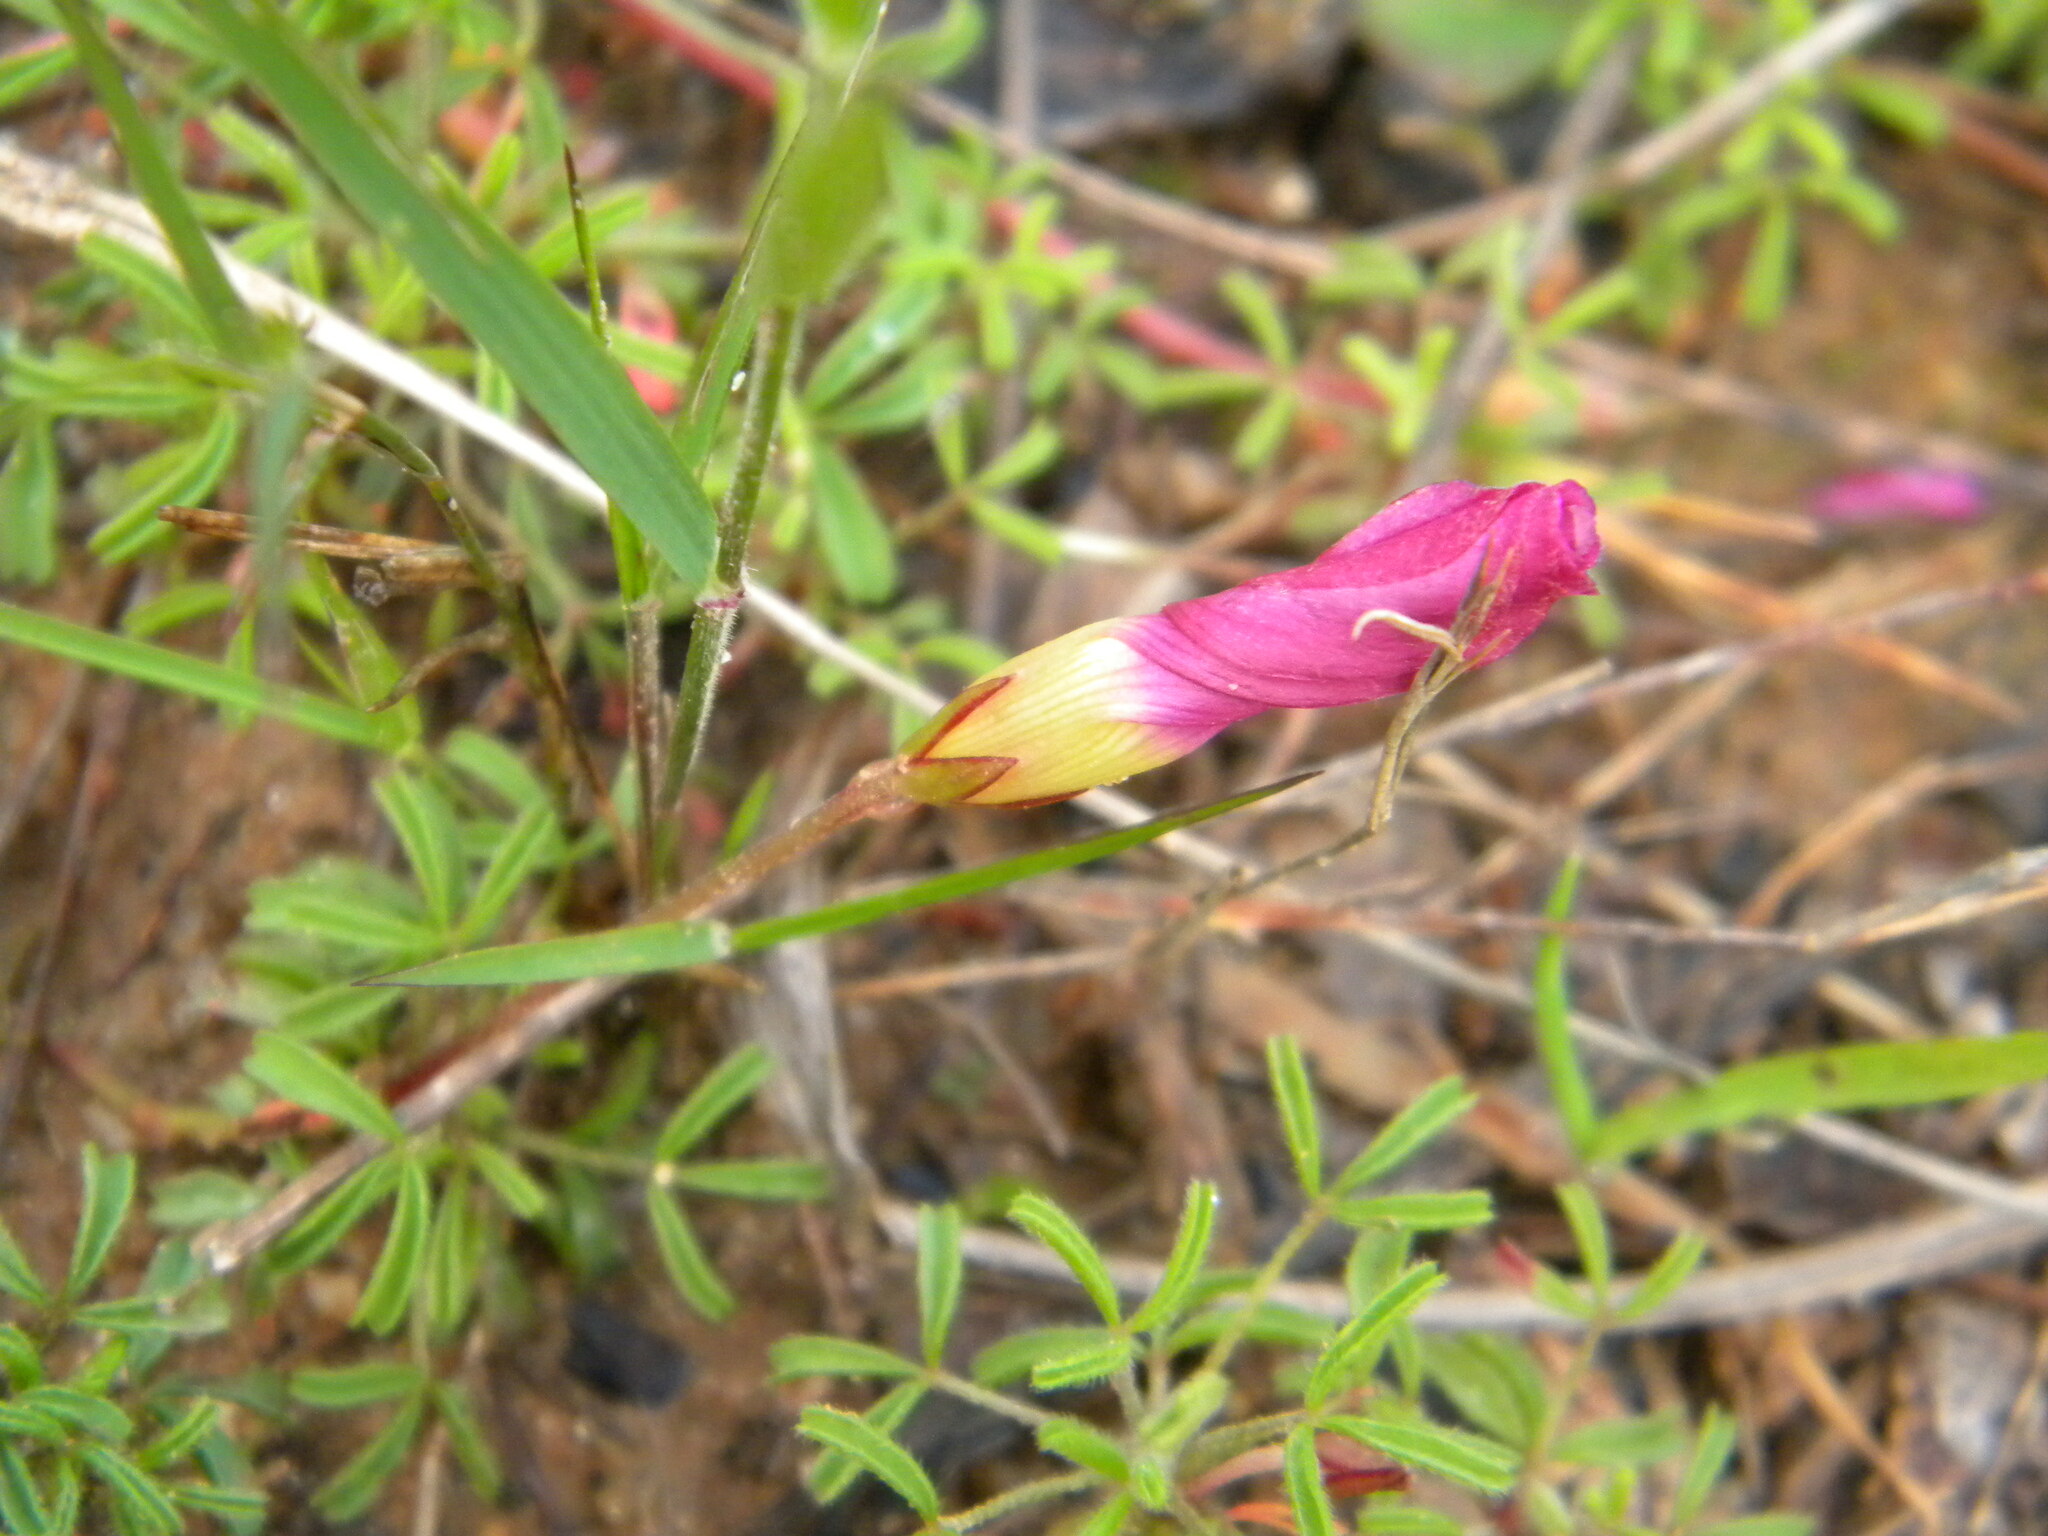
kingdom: Plantae
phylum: Tracheophyta
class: Magnoliopsida
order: Oxalidales
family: Oxalidaceae
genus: Oxalis
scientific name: Oxalis glabra
